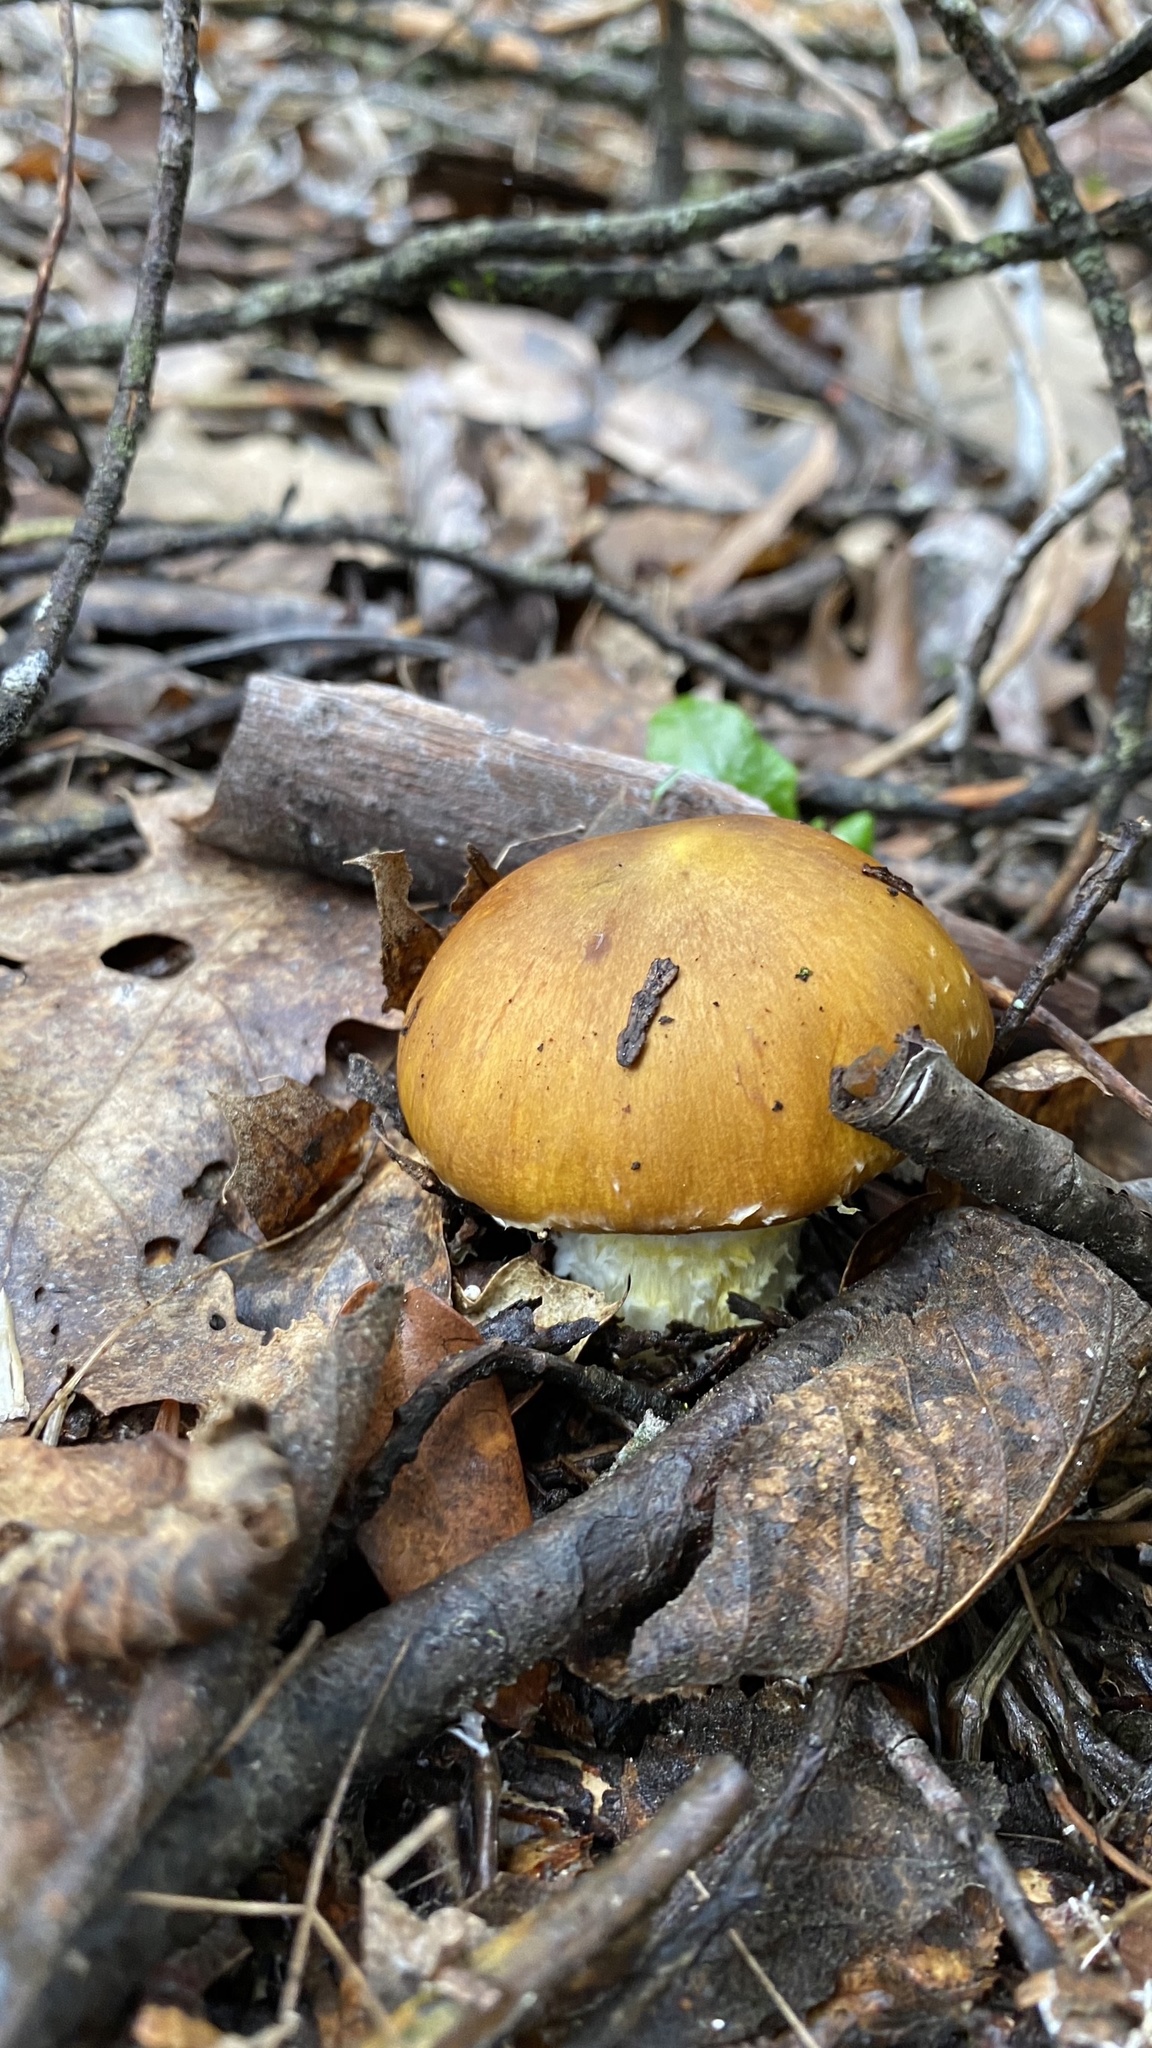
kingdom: Fungi
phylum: Basidiomycota
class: Agaricomycetes
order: Agaricales
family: Agaricaceae
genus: Floccularia
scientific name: Floccularia albolanaripes
